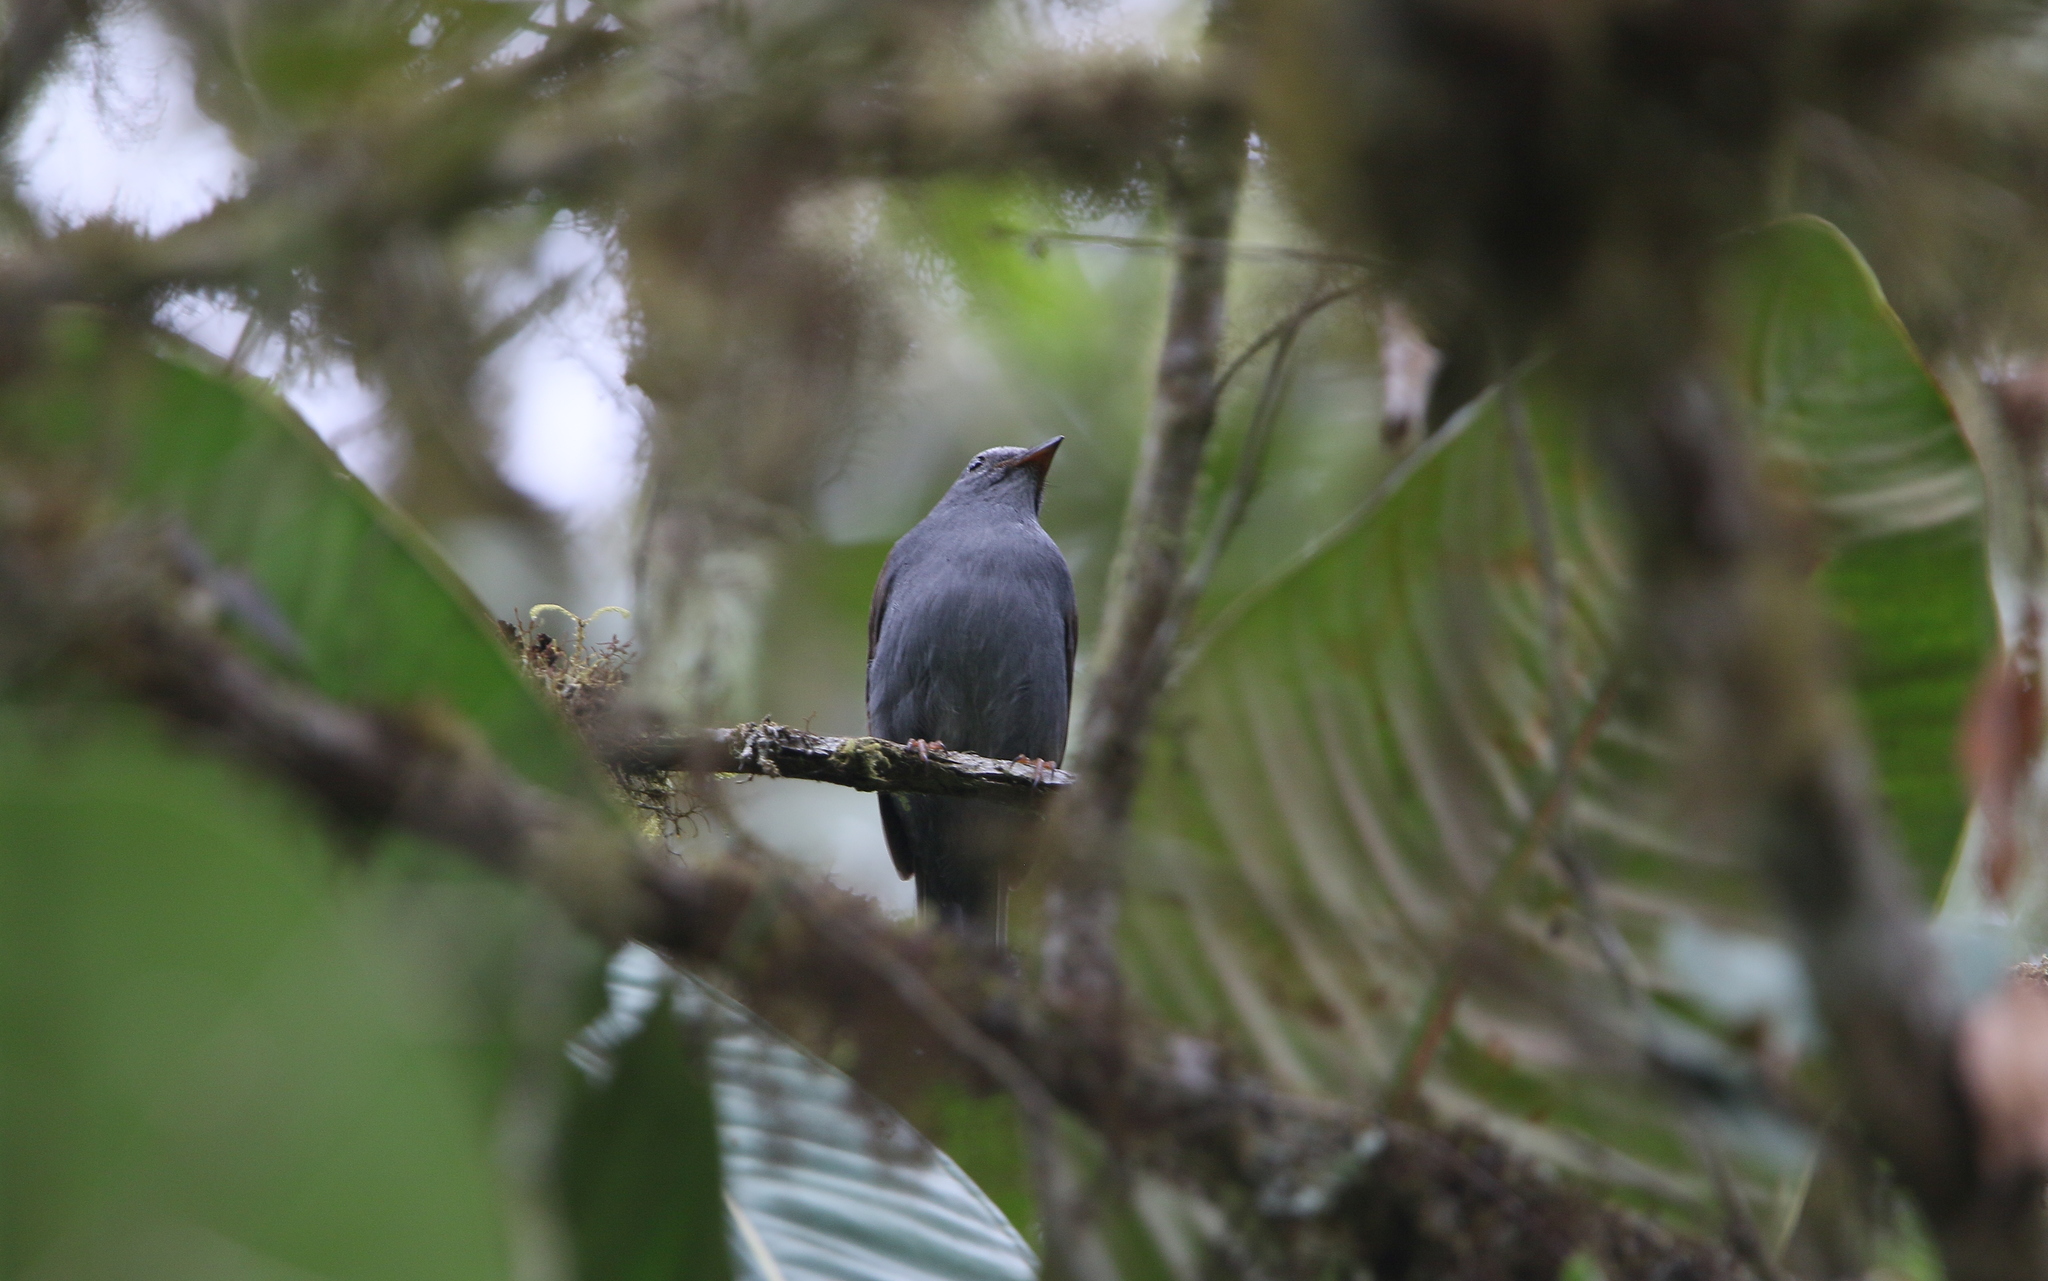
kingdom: Animalia
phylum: Chordata
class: Aves
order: Passeriformes
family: Turdidae
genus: Myadestes
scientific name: Myadestes ralloides
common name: Andean solitaire
